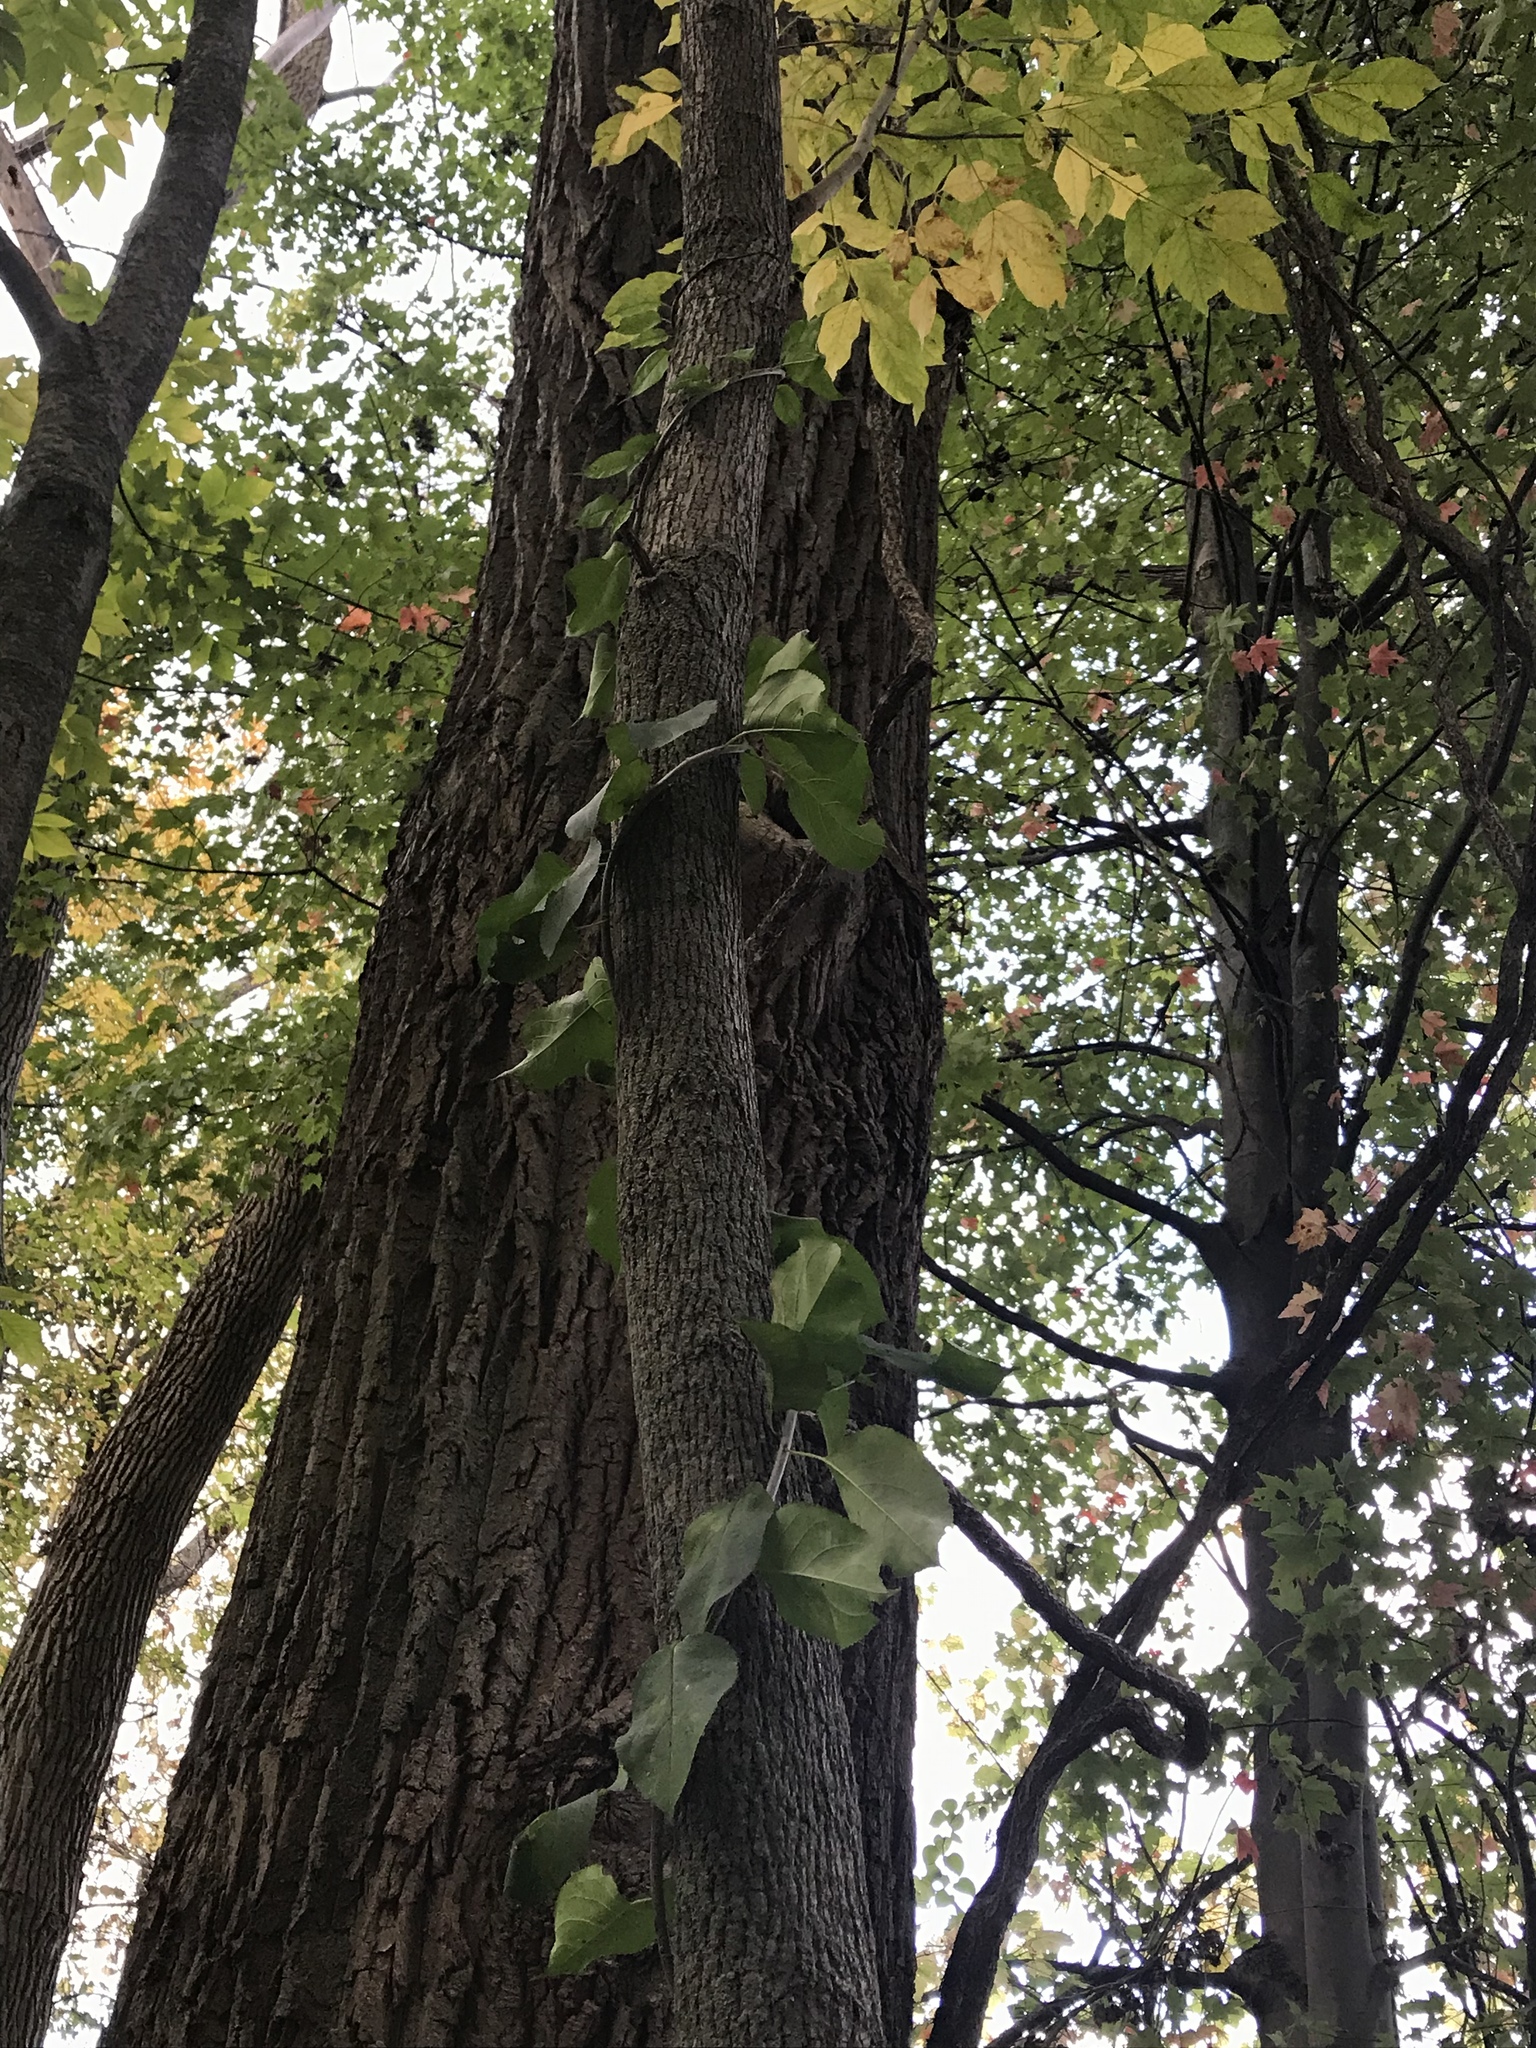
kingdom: Plantae
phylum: Tracheophyta
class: Magnoliopsida
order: Celastrales
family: Celastraceae
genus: Celastrus
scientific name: Celastrus orbiculatus
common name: Oriental bittersweet
